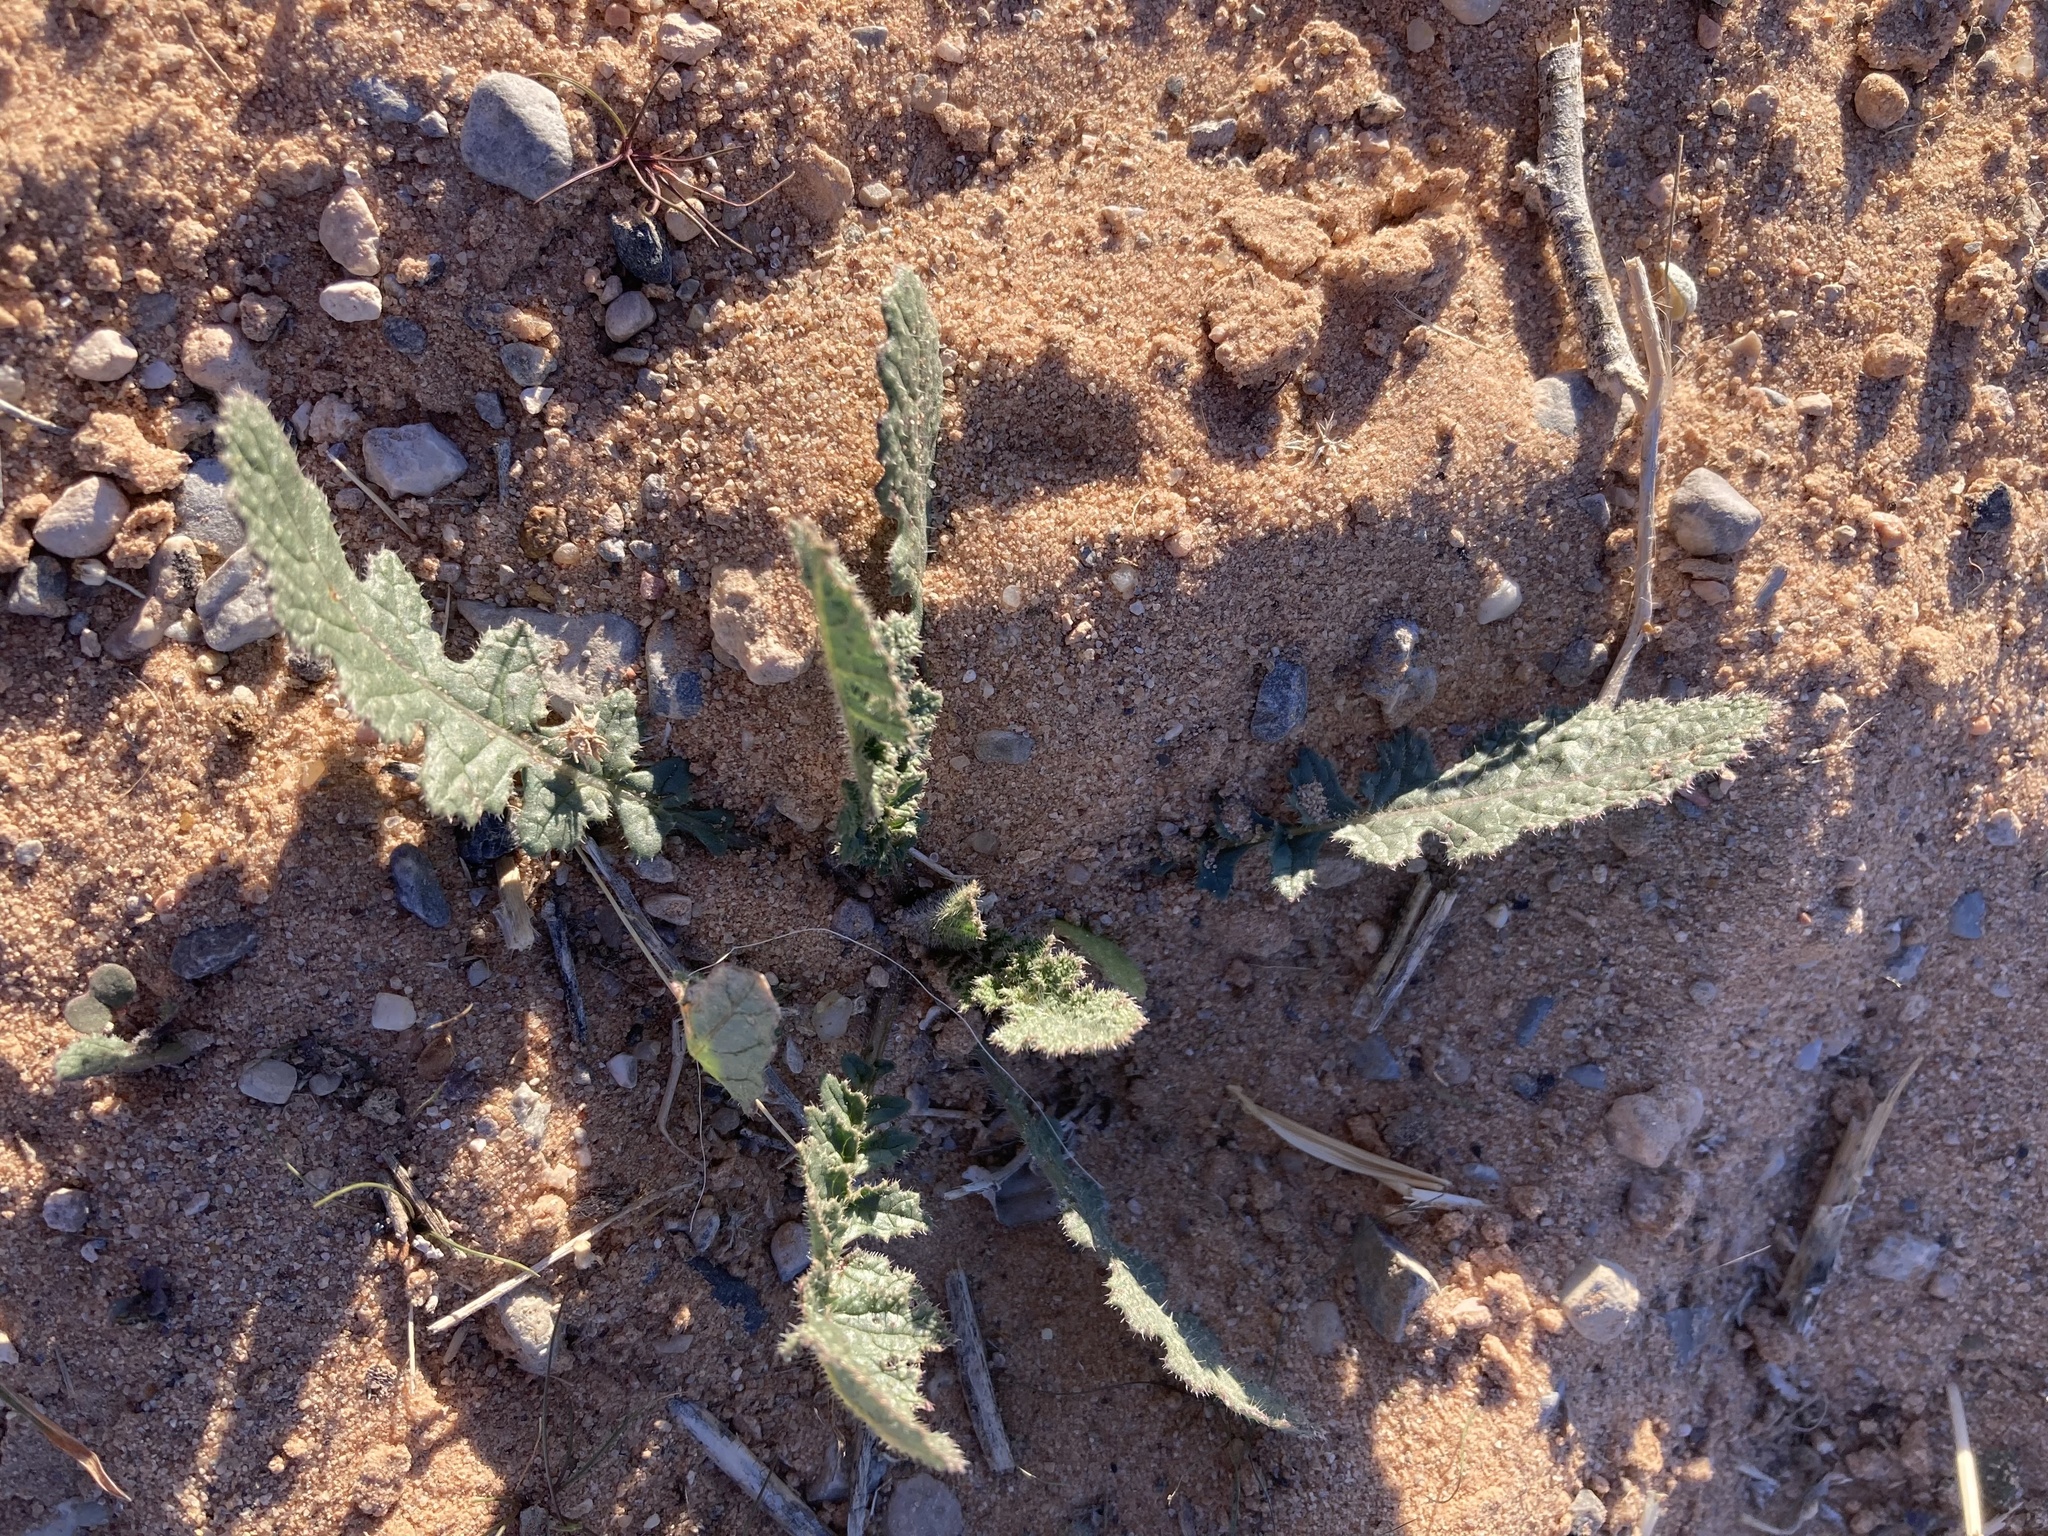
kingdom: Plantae
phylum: Tracheophyta
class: Magnoliopsida
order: Brassicales
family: Brassicaceae
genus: Brassica
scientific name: Brassica tournefortii
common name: Pale cabbage
